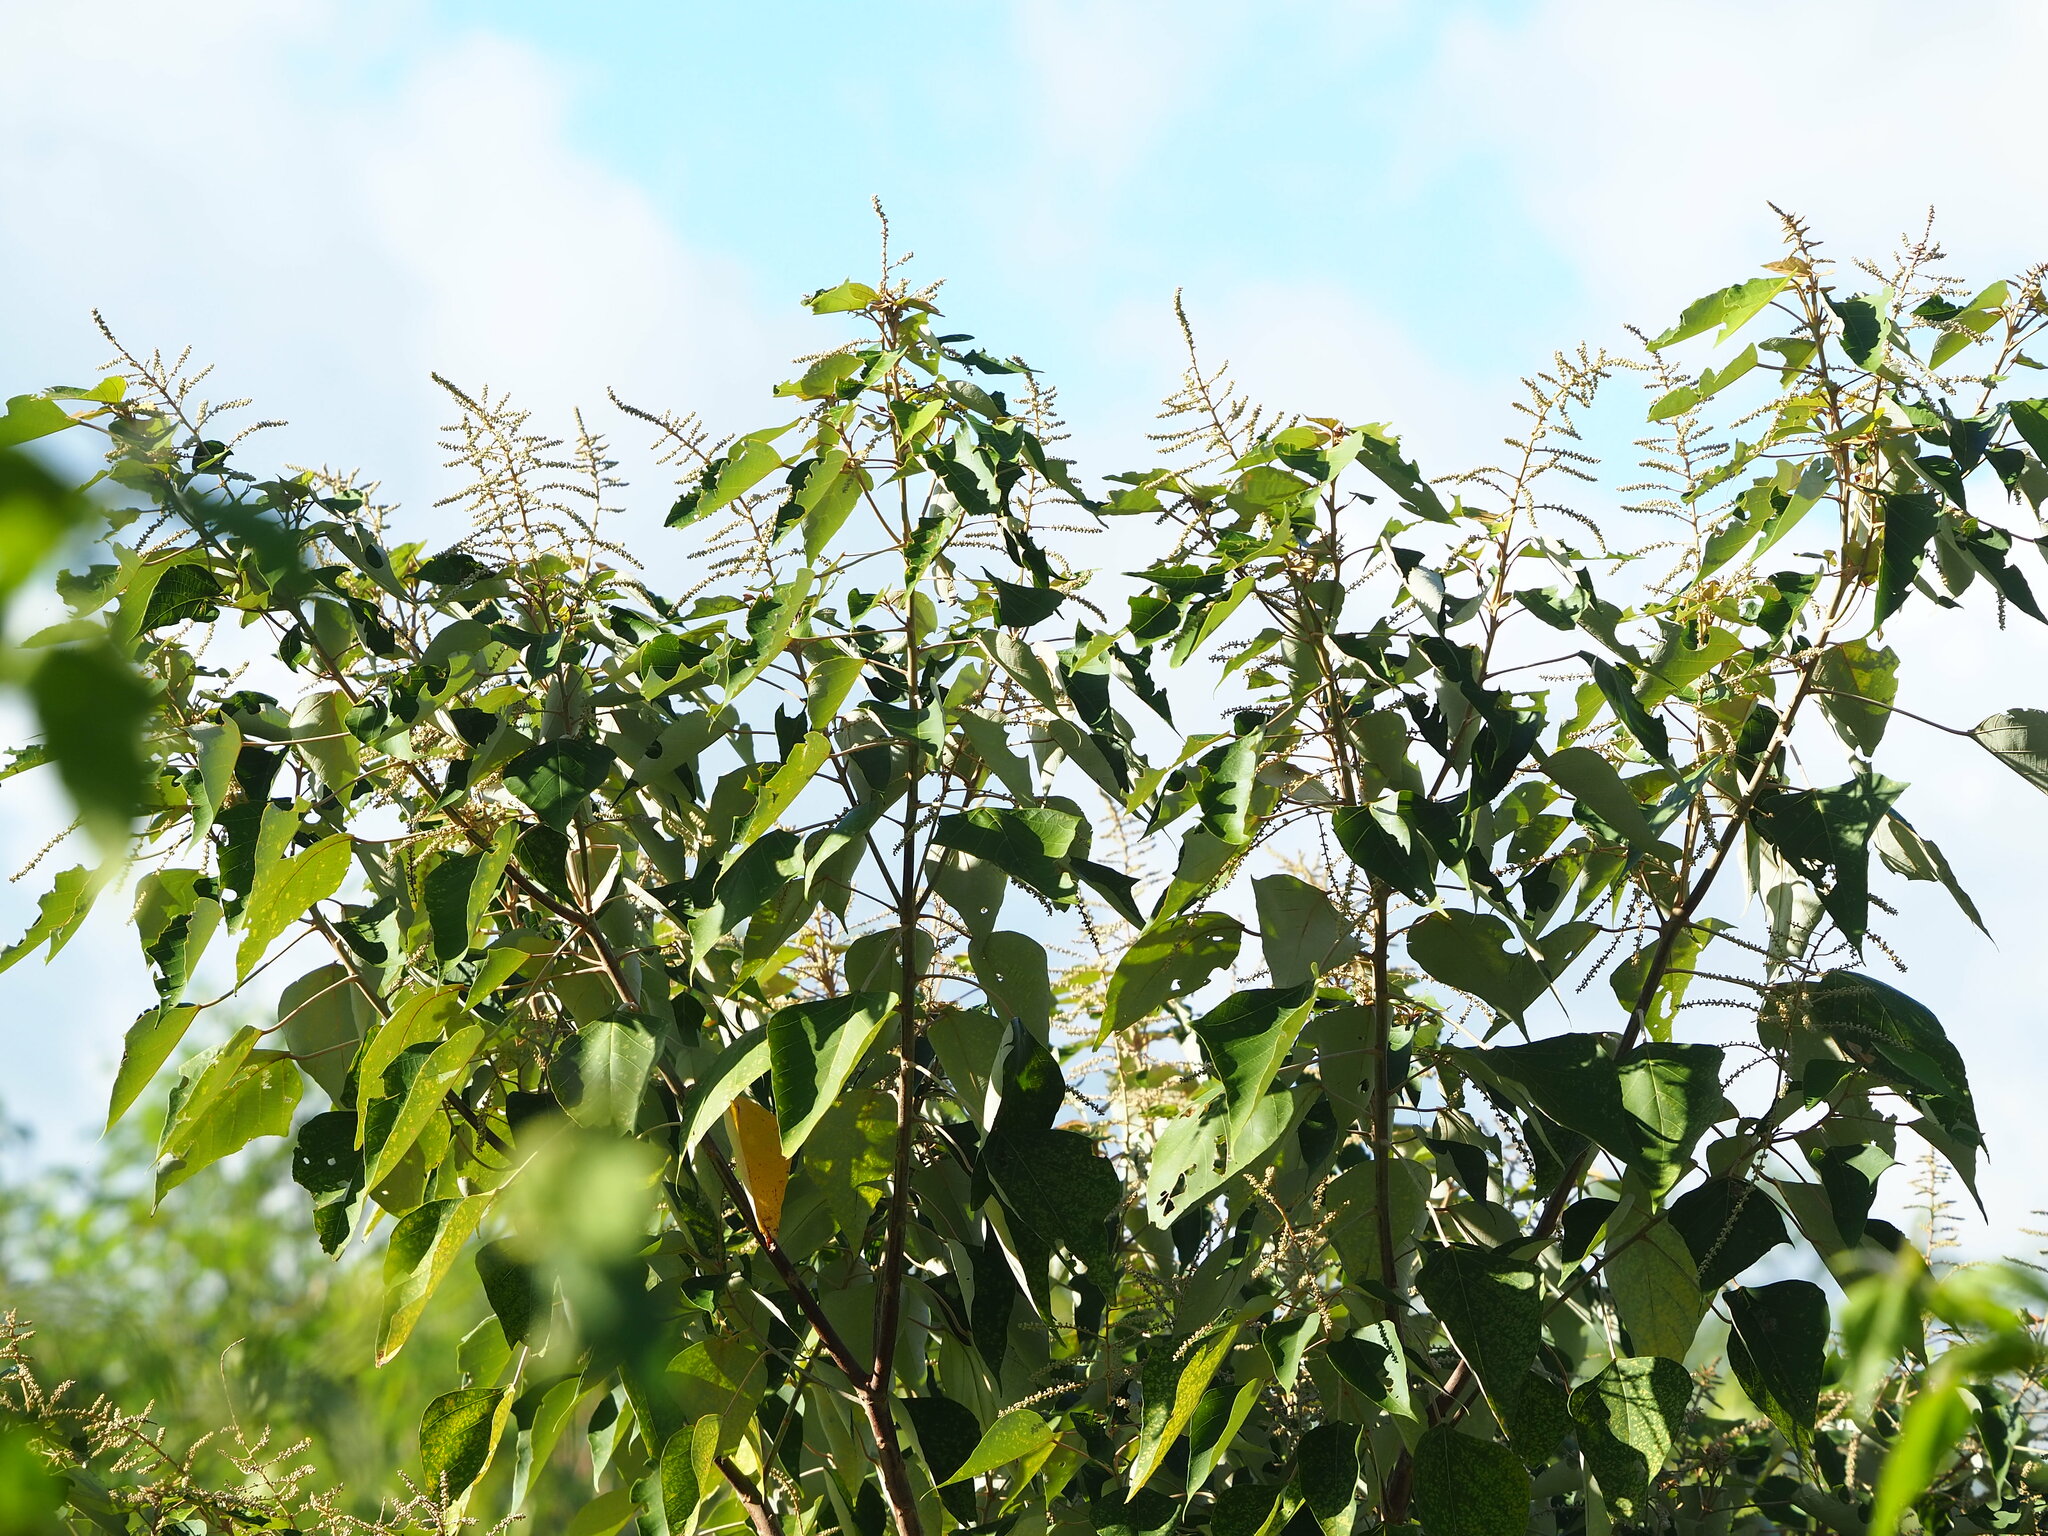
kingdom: Plantae
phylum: Tracheophyta
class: Magnoliopsida
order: Malpighiales
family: Euphorbiaceae
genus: Mallotus
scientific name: Mallotus repandus
